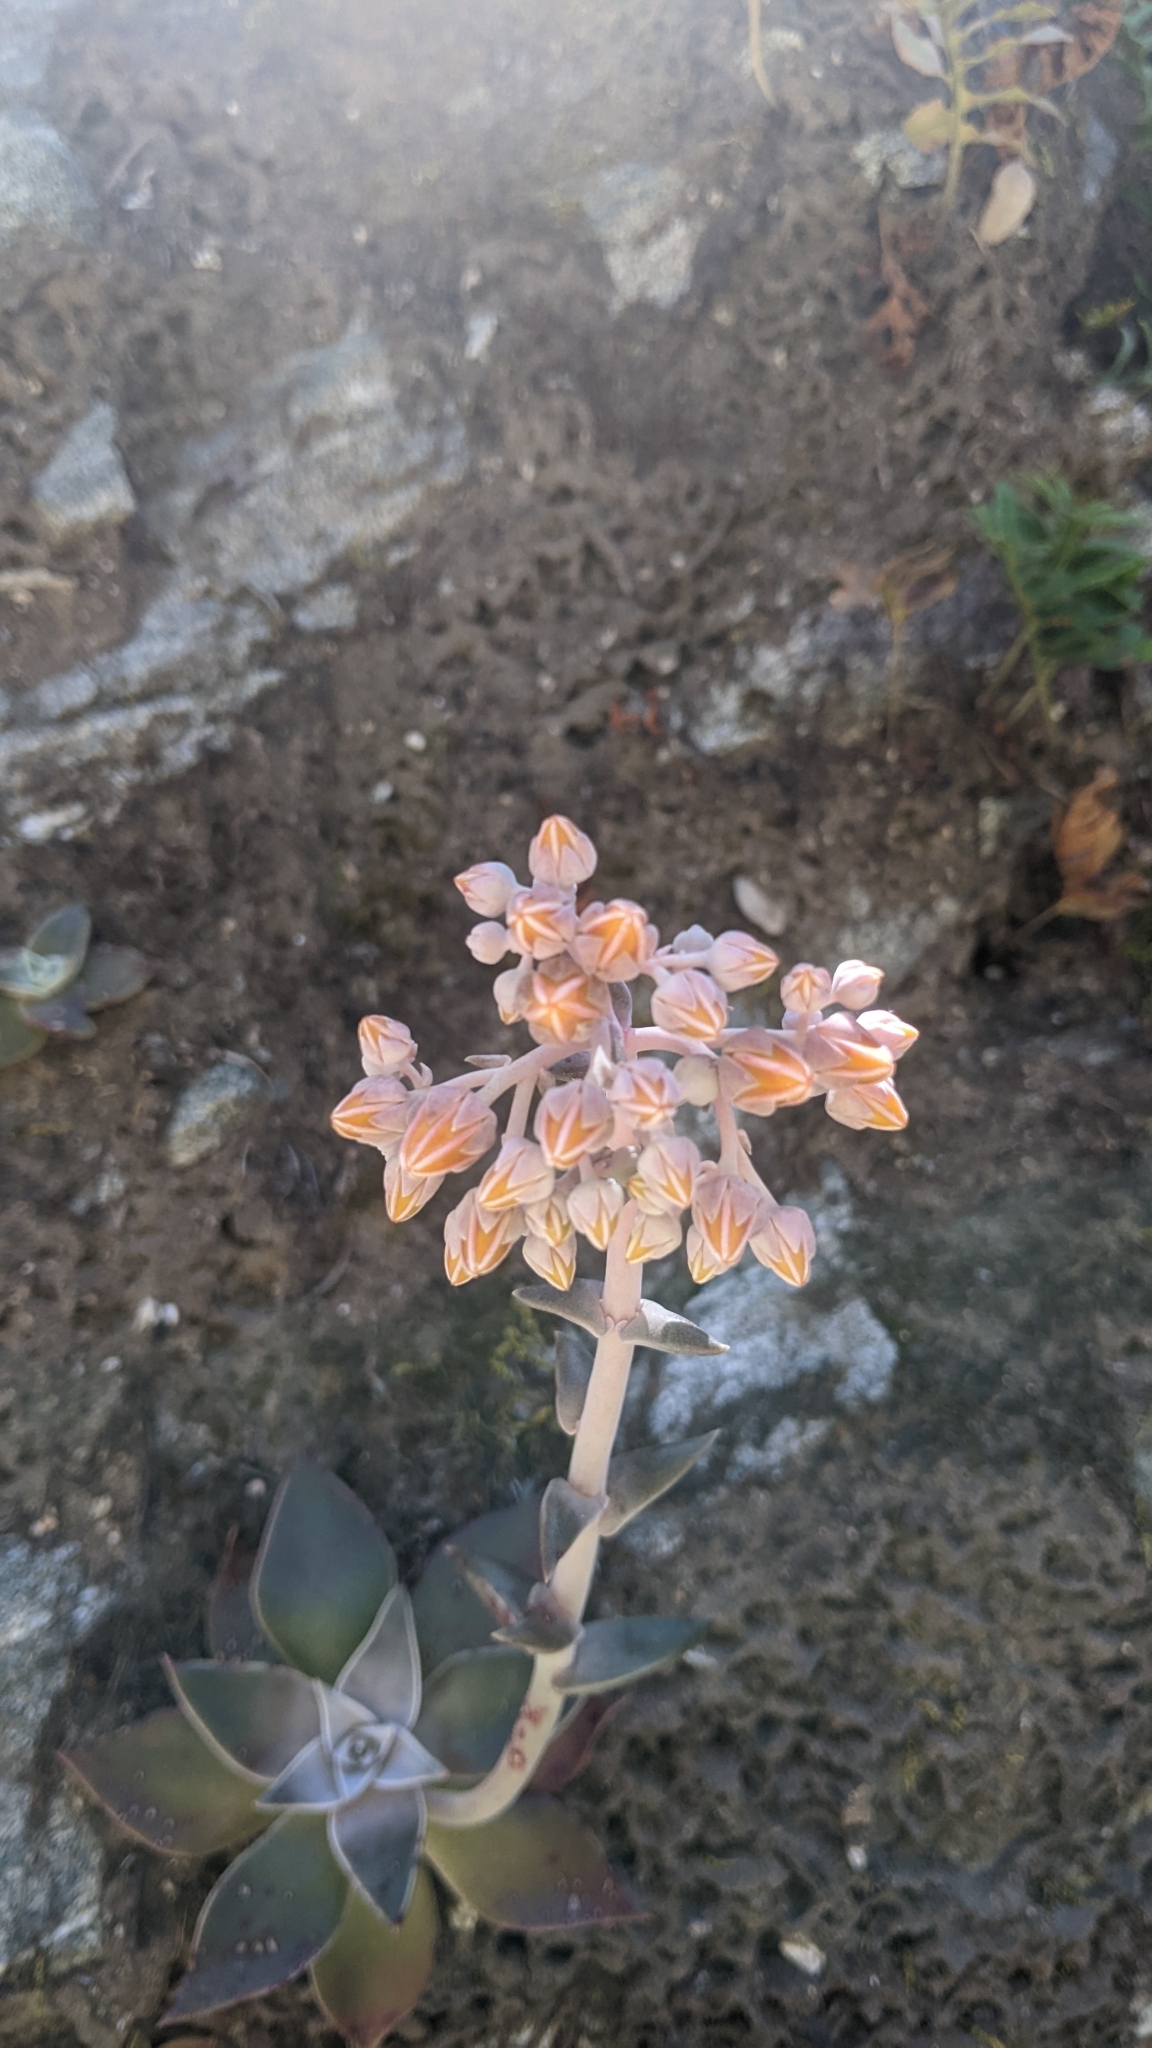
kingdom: Plantae
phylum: Tracheophyta
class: Magnoliopsida
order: Saxifragales
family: Crassulaceae
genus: Dudleya
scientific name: Dudleya cymosa
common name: Canyon dudleya
